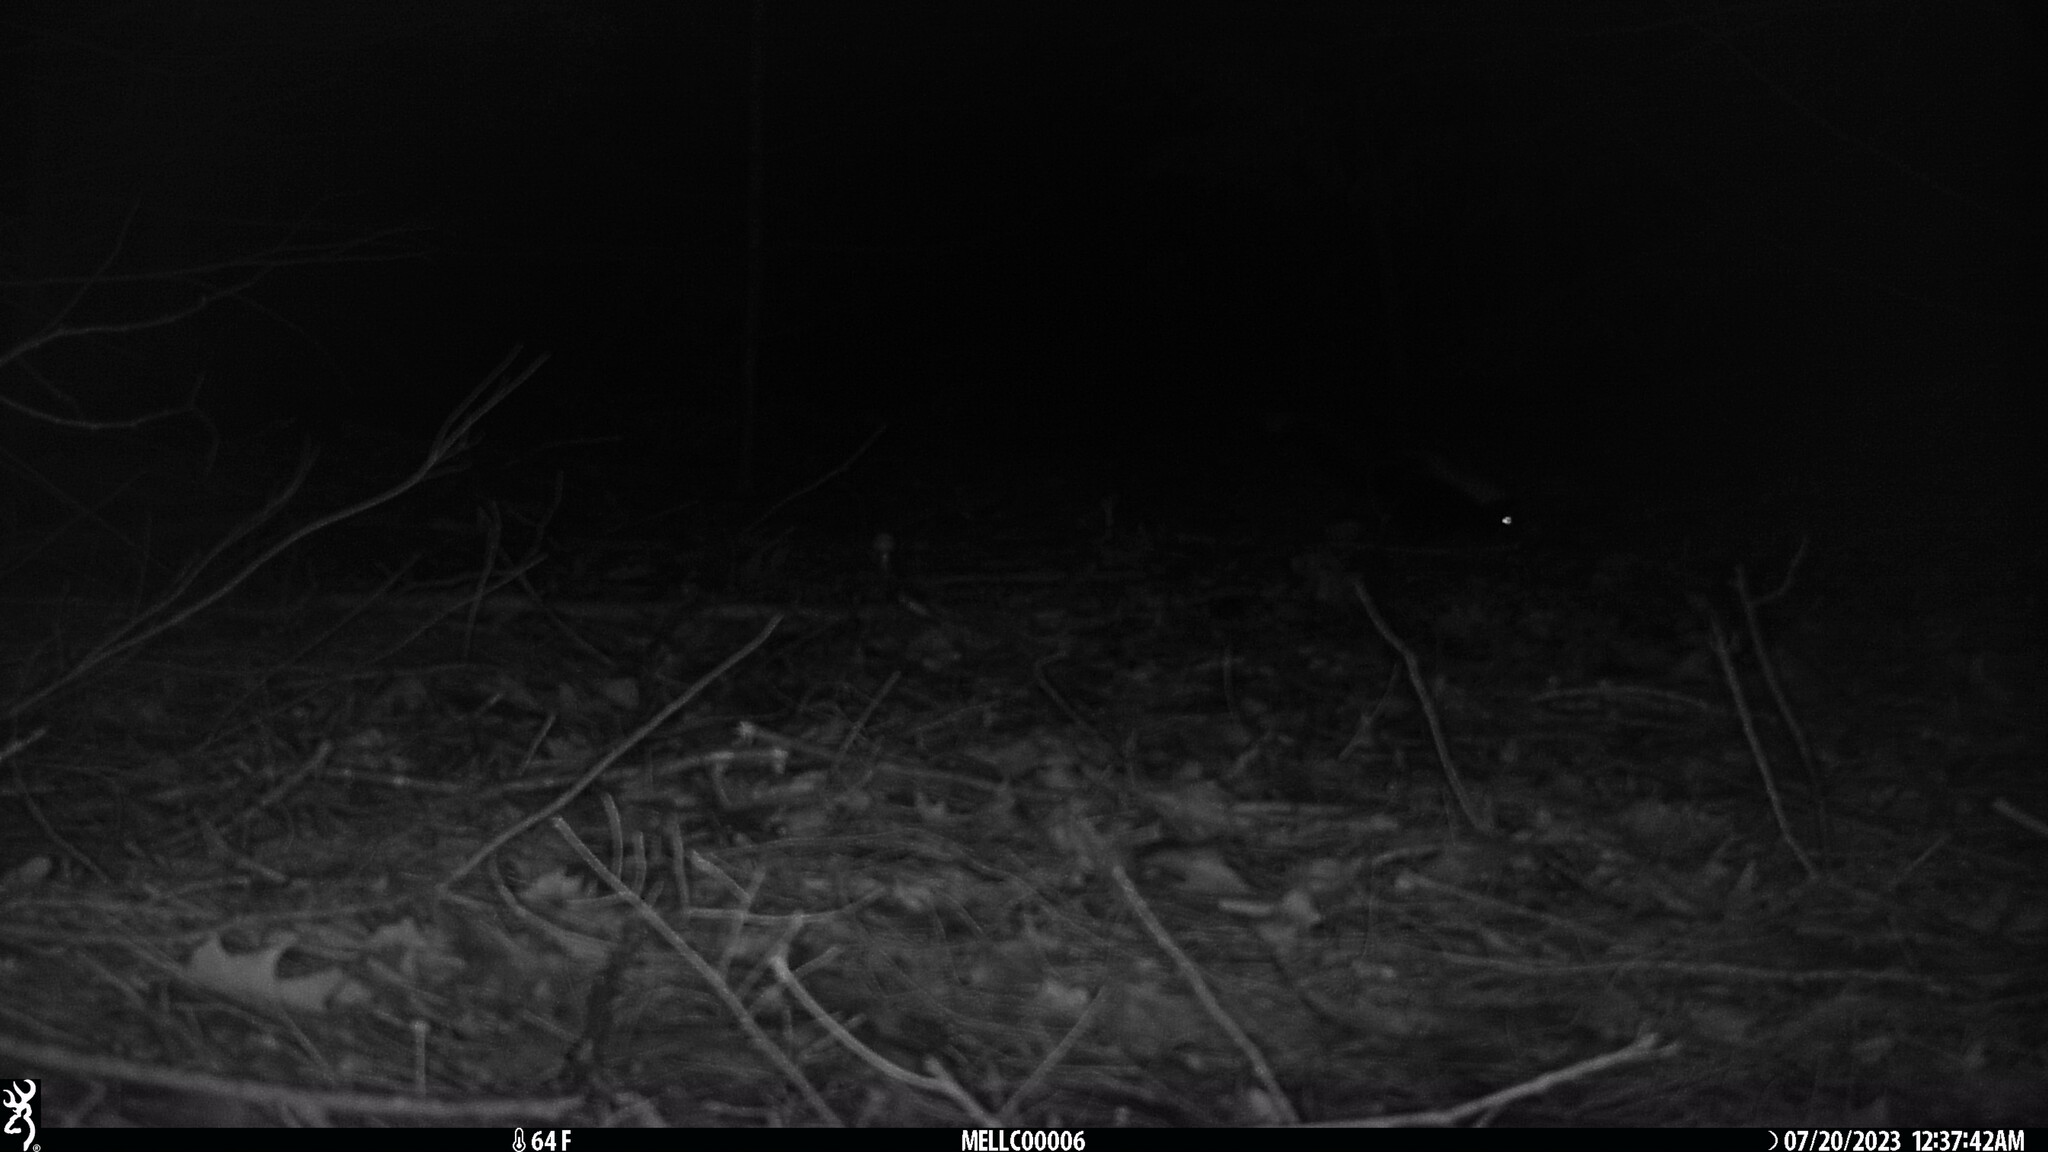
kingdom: Animalia
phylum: Chordata
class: Mammalia
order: Carnivora
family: Mephitidae
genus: Mephitis
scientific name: Mephitis mephitis
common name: Striped skunk
